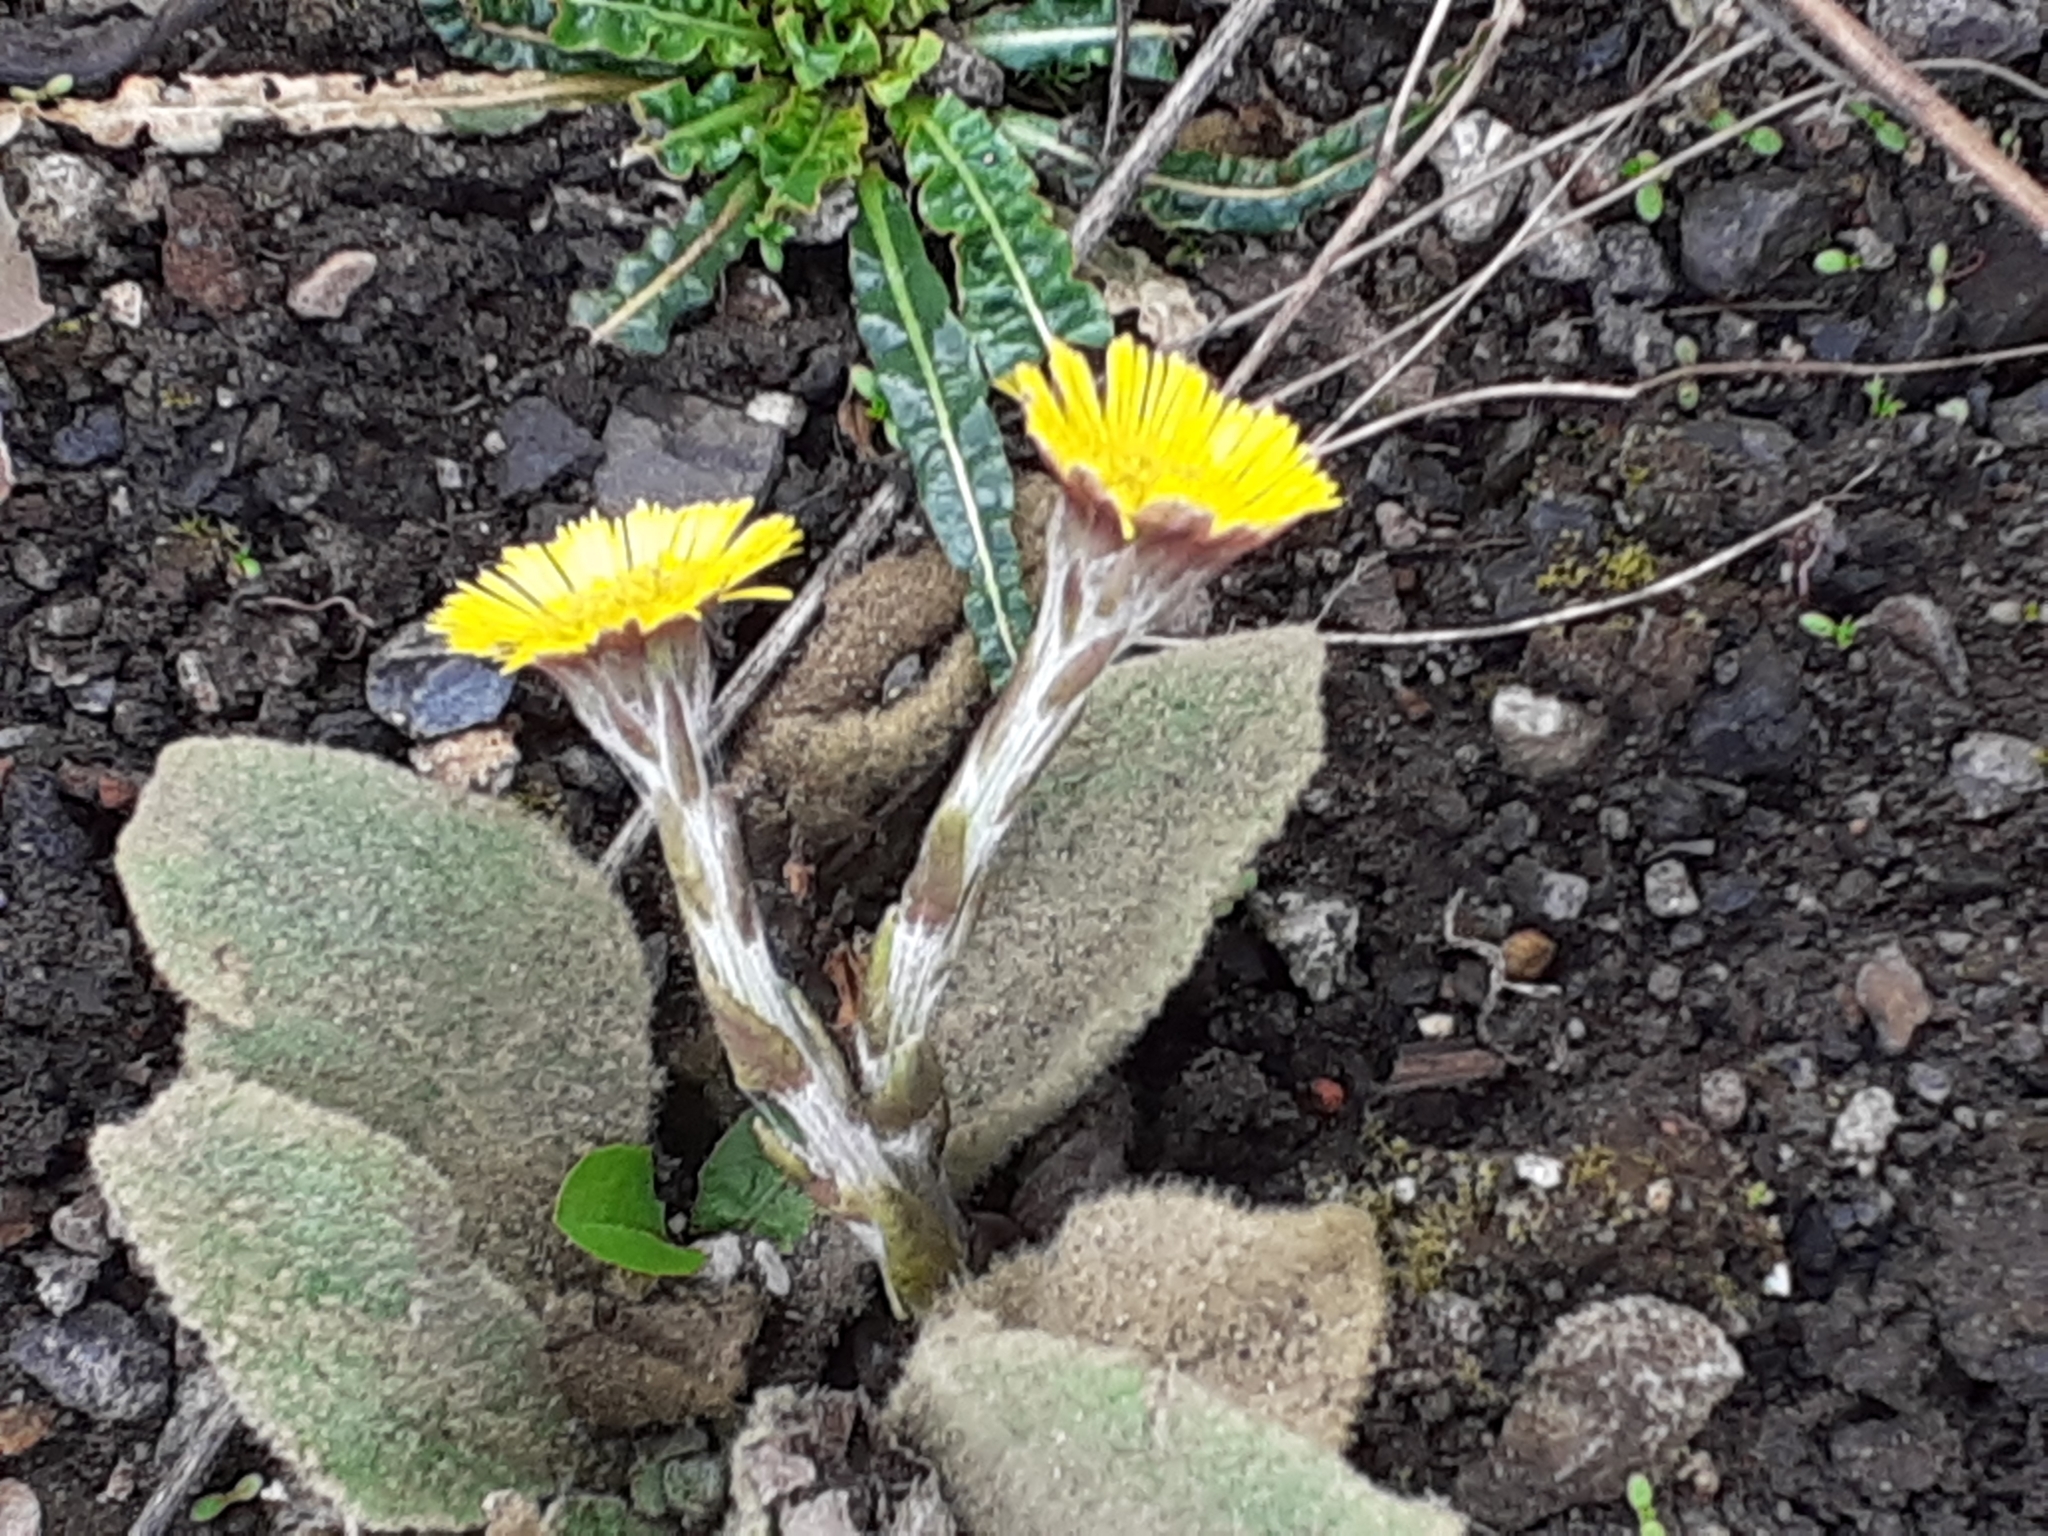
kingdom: Plantae
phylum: Tracheophyta
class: Magnoliopsida
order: Asterales
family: Asteraceae
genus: Tussilago
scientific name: Tussilago farfara
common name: Coltsfoot
